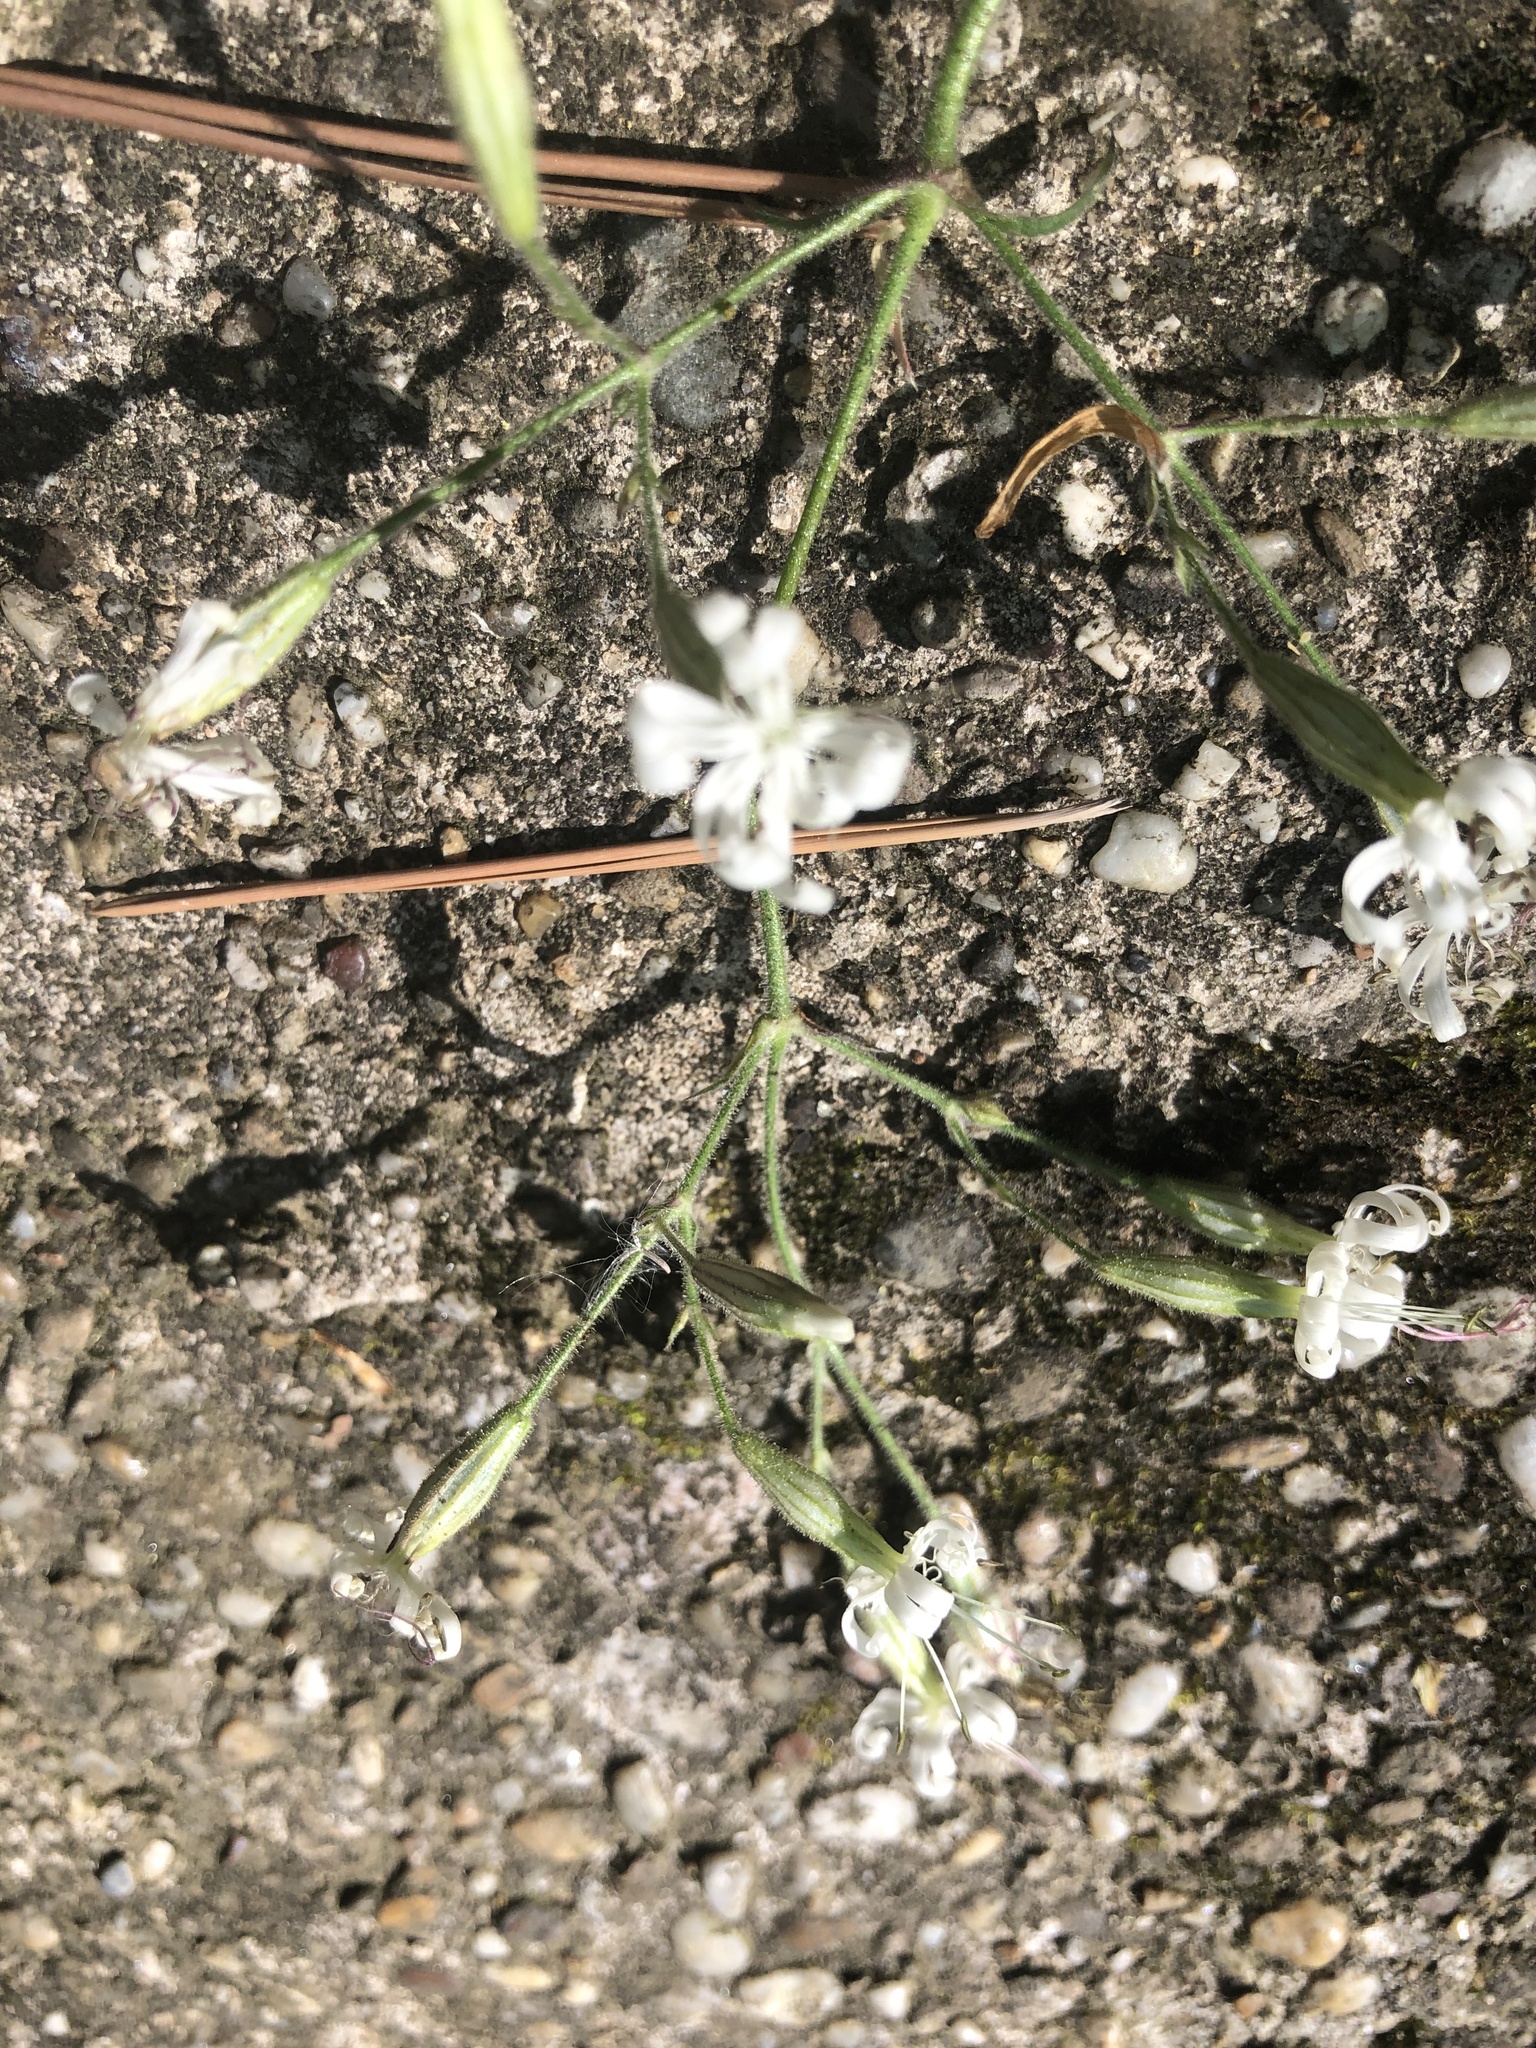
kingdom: Plantae
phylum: Tracheophyta
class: Magnoliopsida
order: Caryophyllales
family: Caryophyllaceae
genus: Silene
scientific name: Silene nutans
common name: Nottingham catchfly
